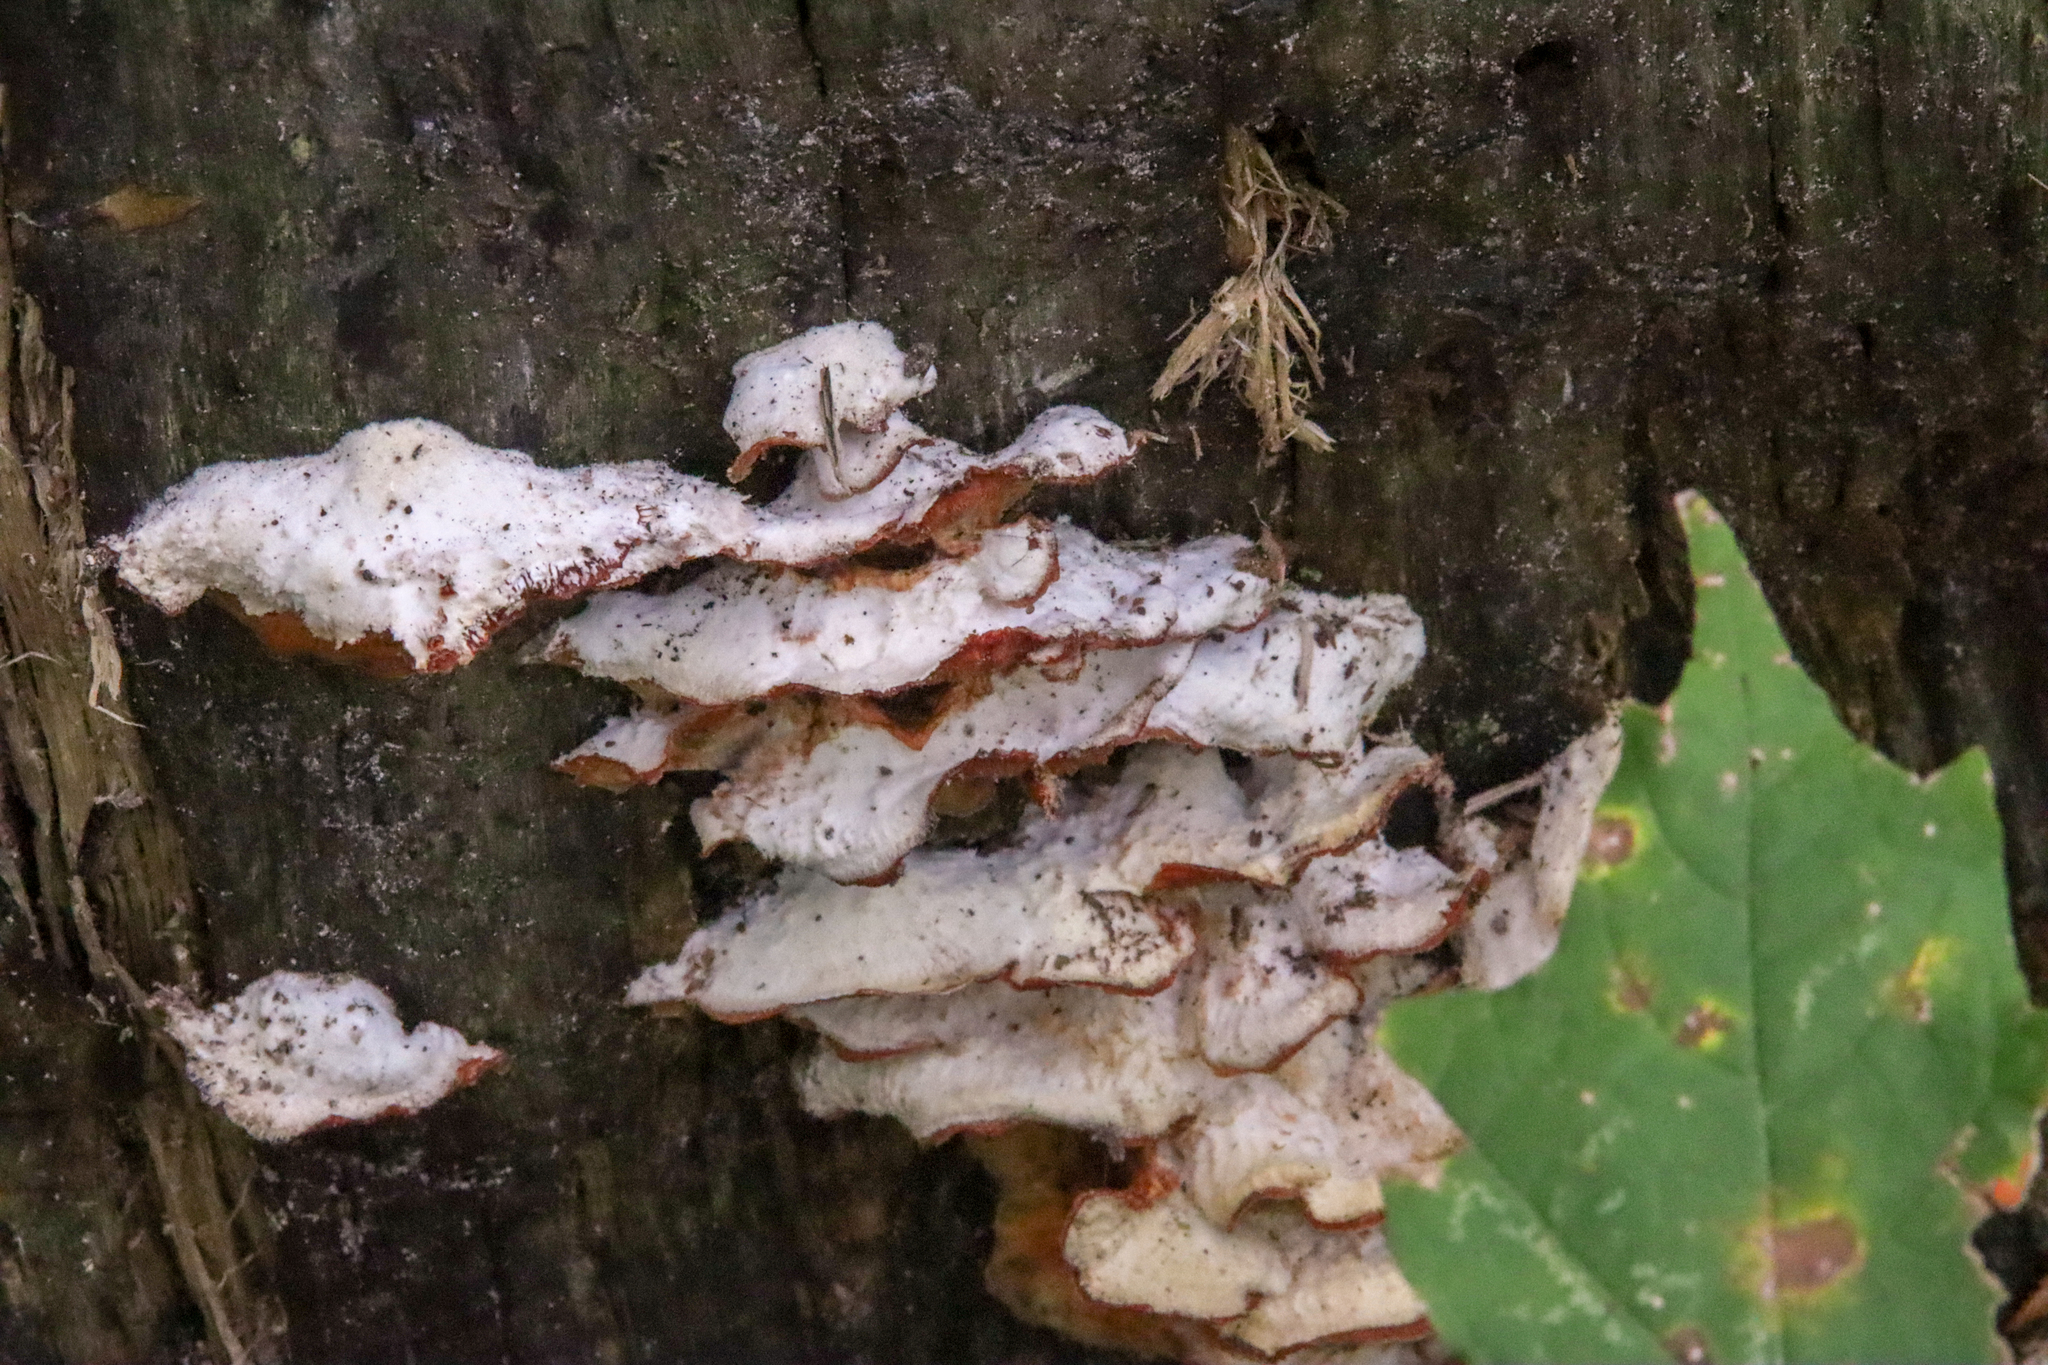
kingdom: Fungi
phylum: Basidiomycota
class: Agaricomycetes
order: Polyporales
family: Meruliaceae
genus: Phlebia
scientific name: Phlebia tremellosa
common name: Jelly rot
